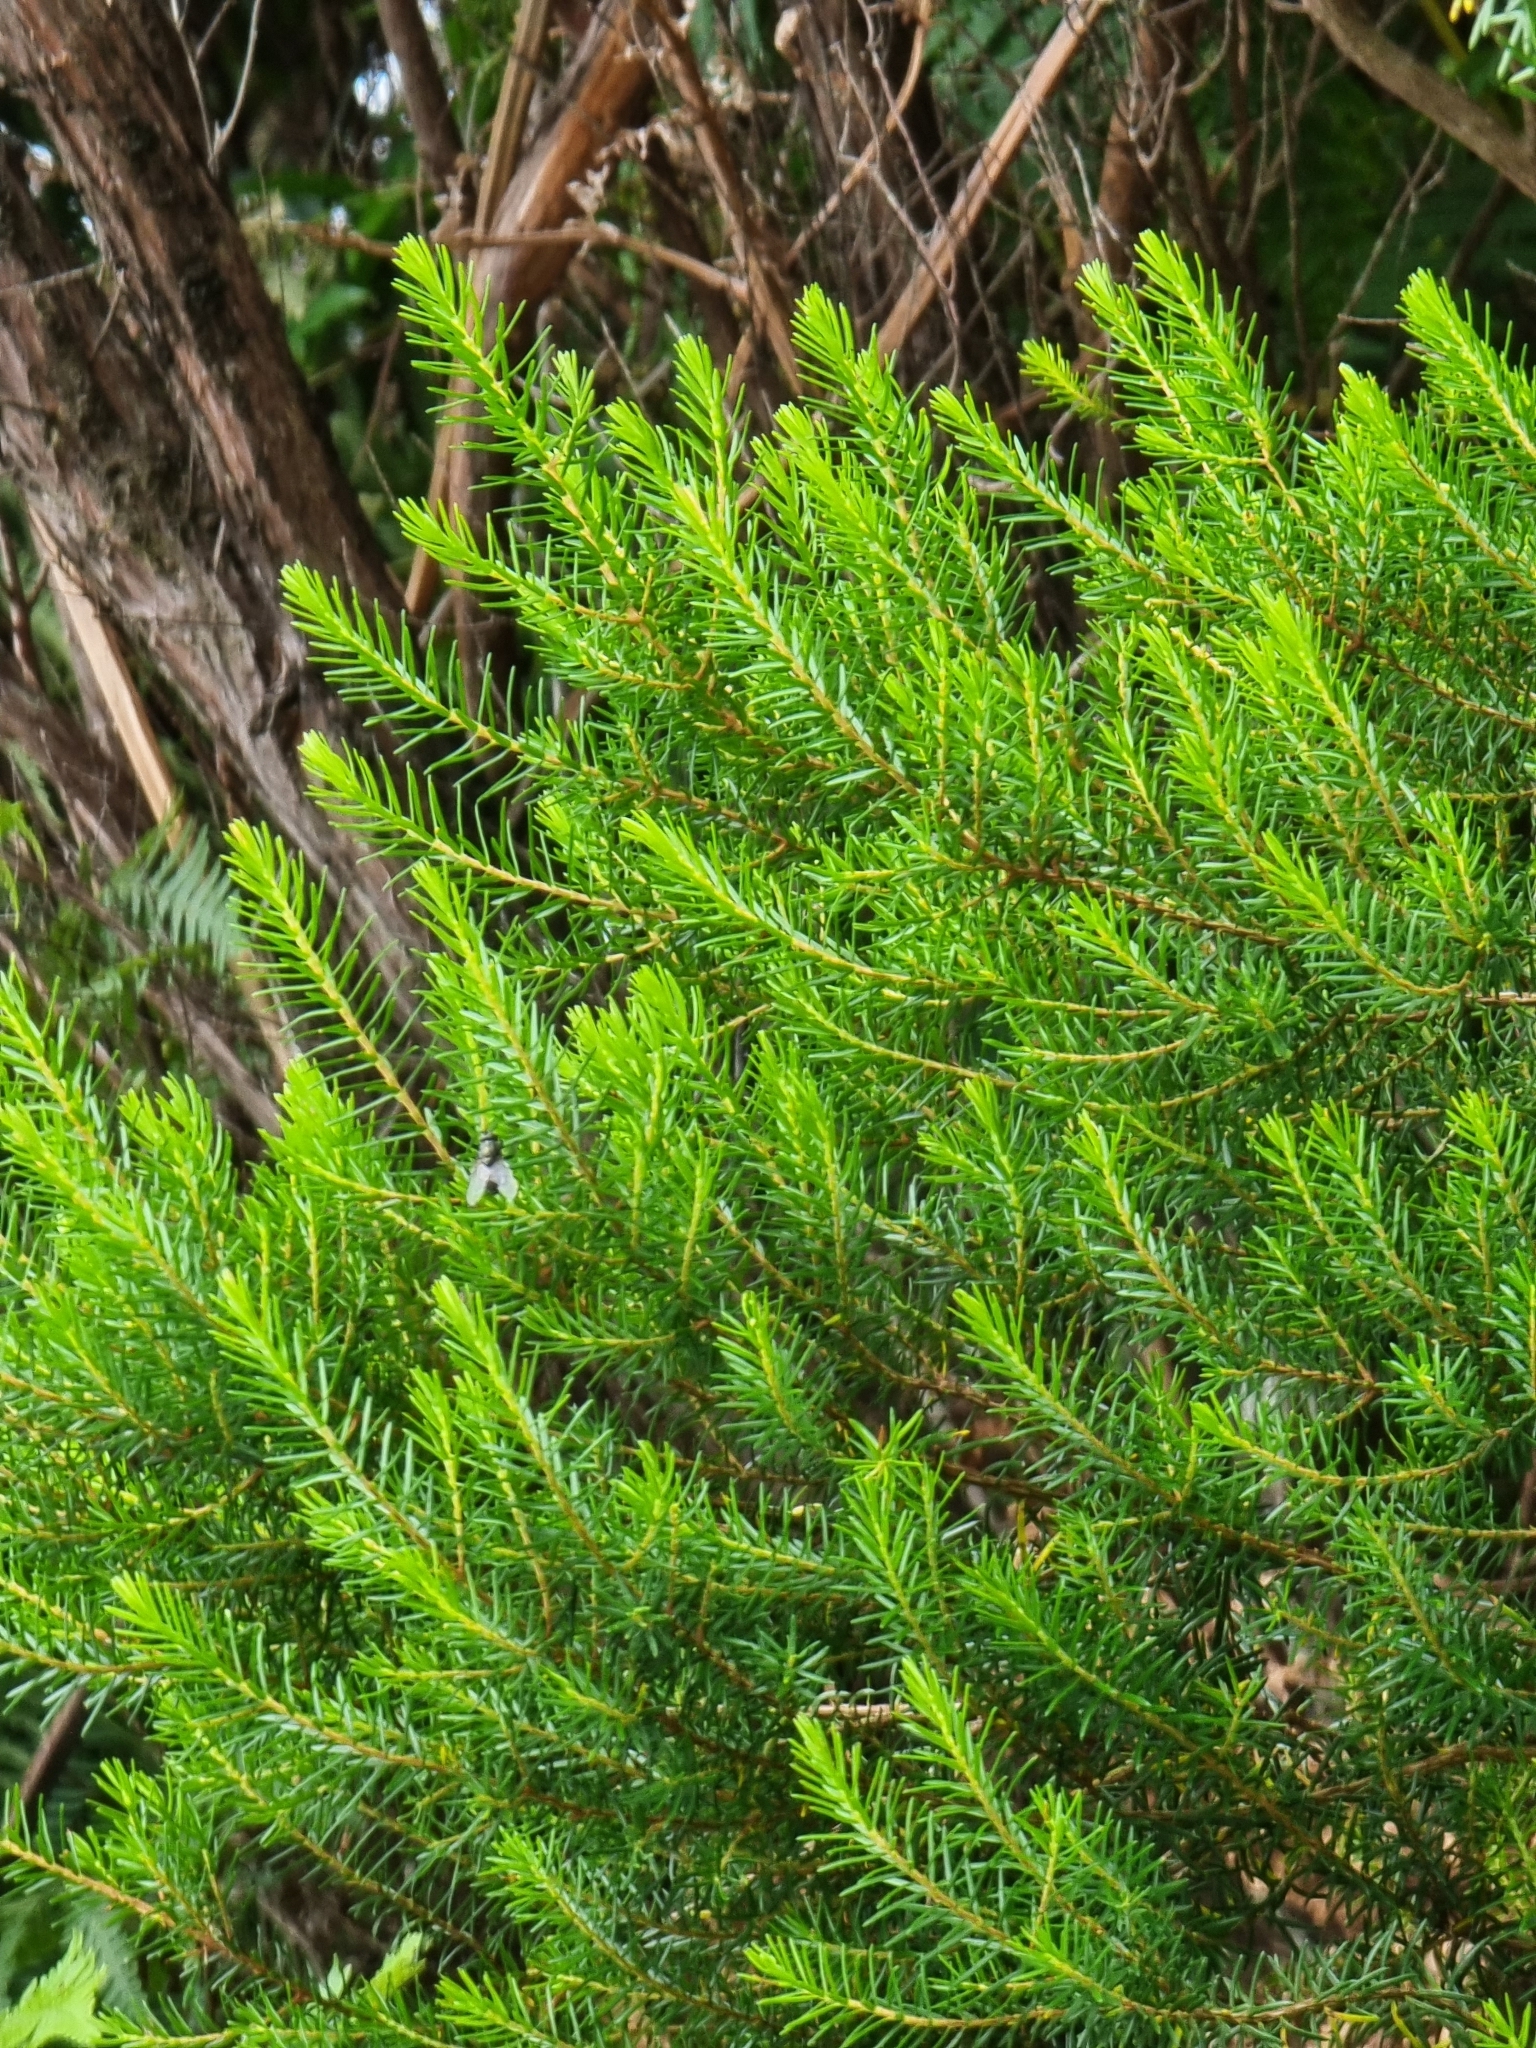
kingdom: Plantae
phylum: Tracheophyta
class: Magnoliopsida
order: Ericales
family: Ericaceae
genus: Erica
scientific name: Erica platycodon
